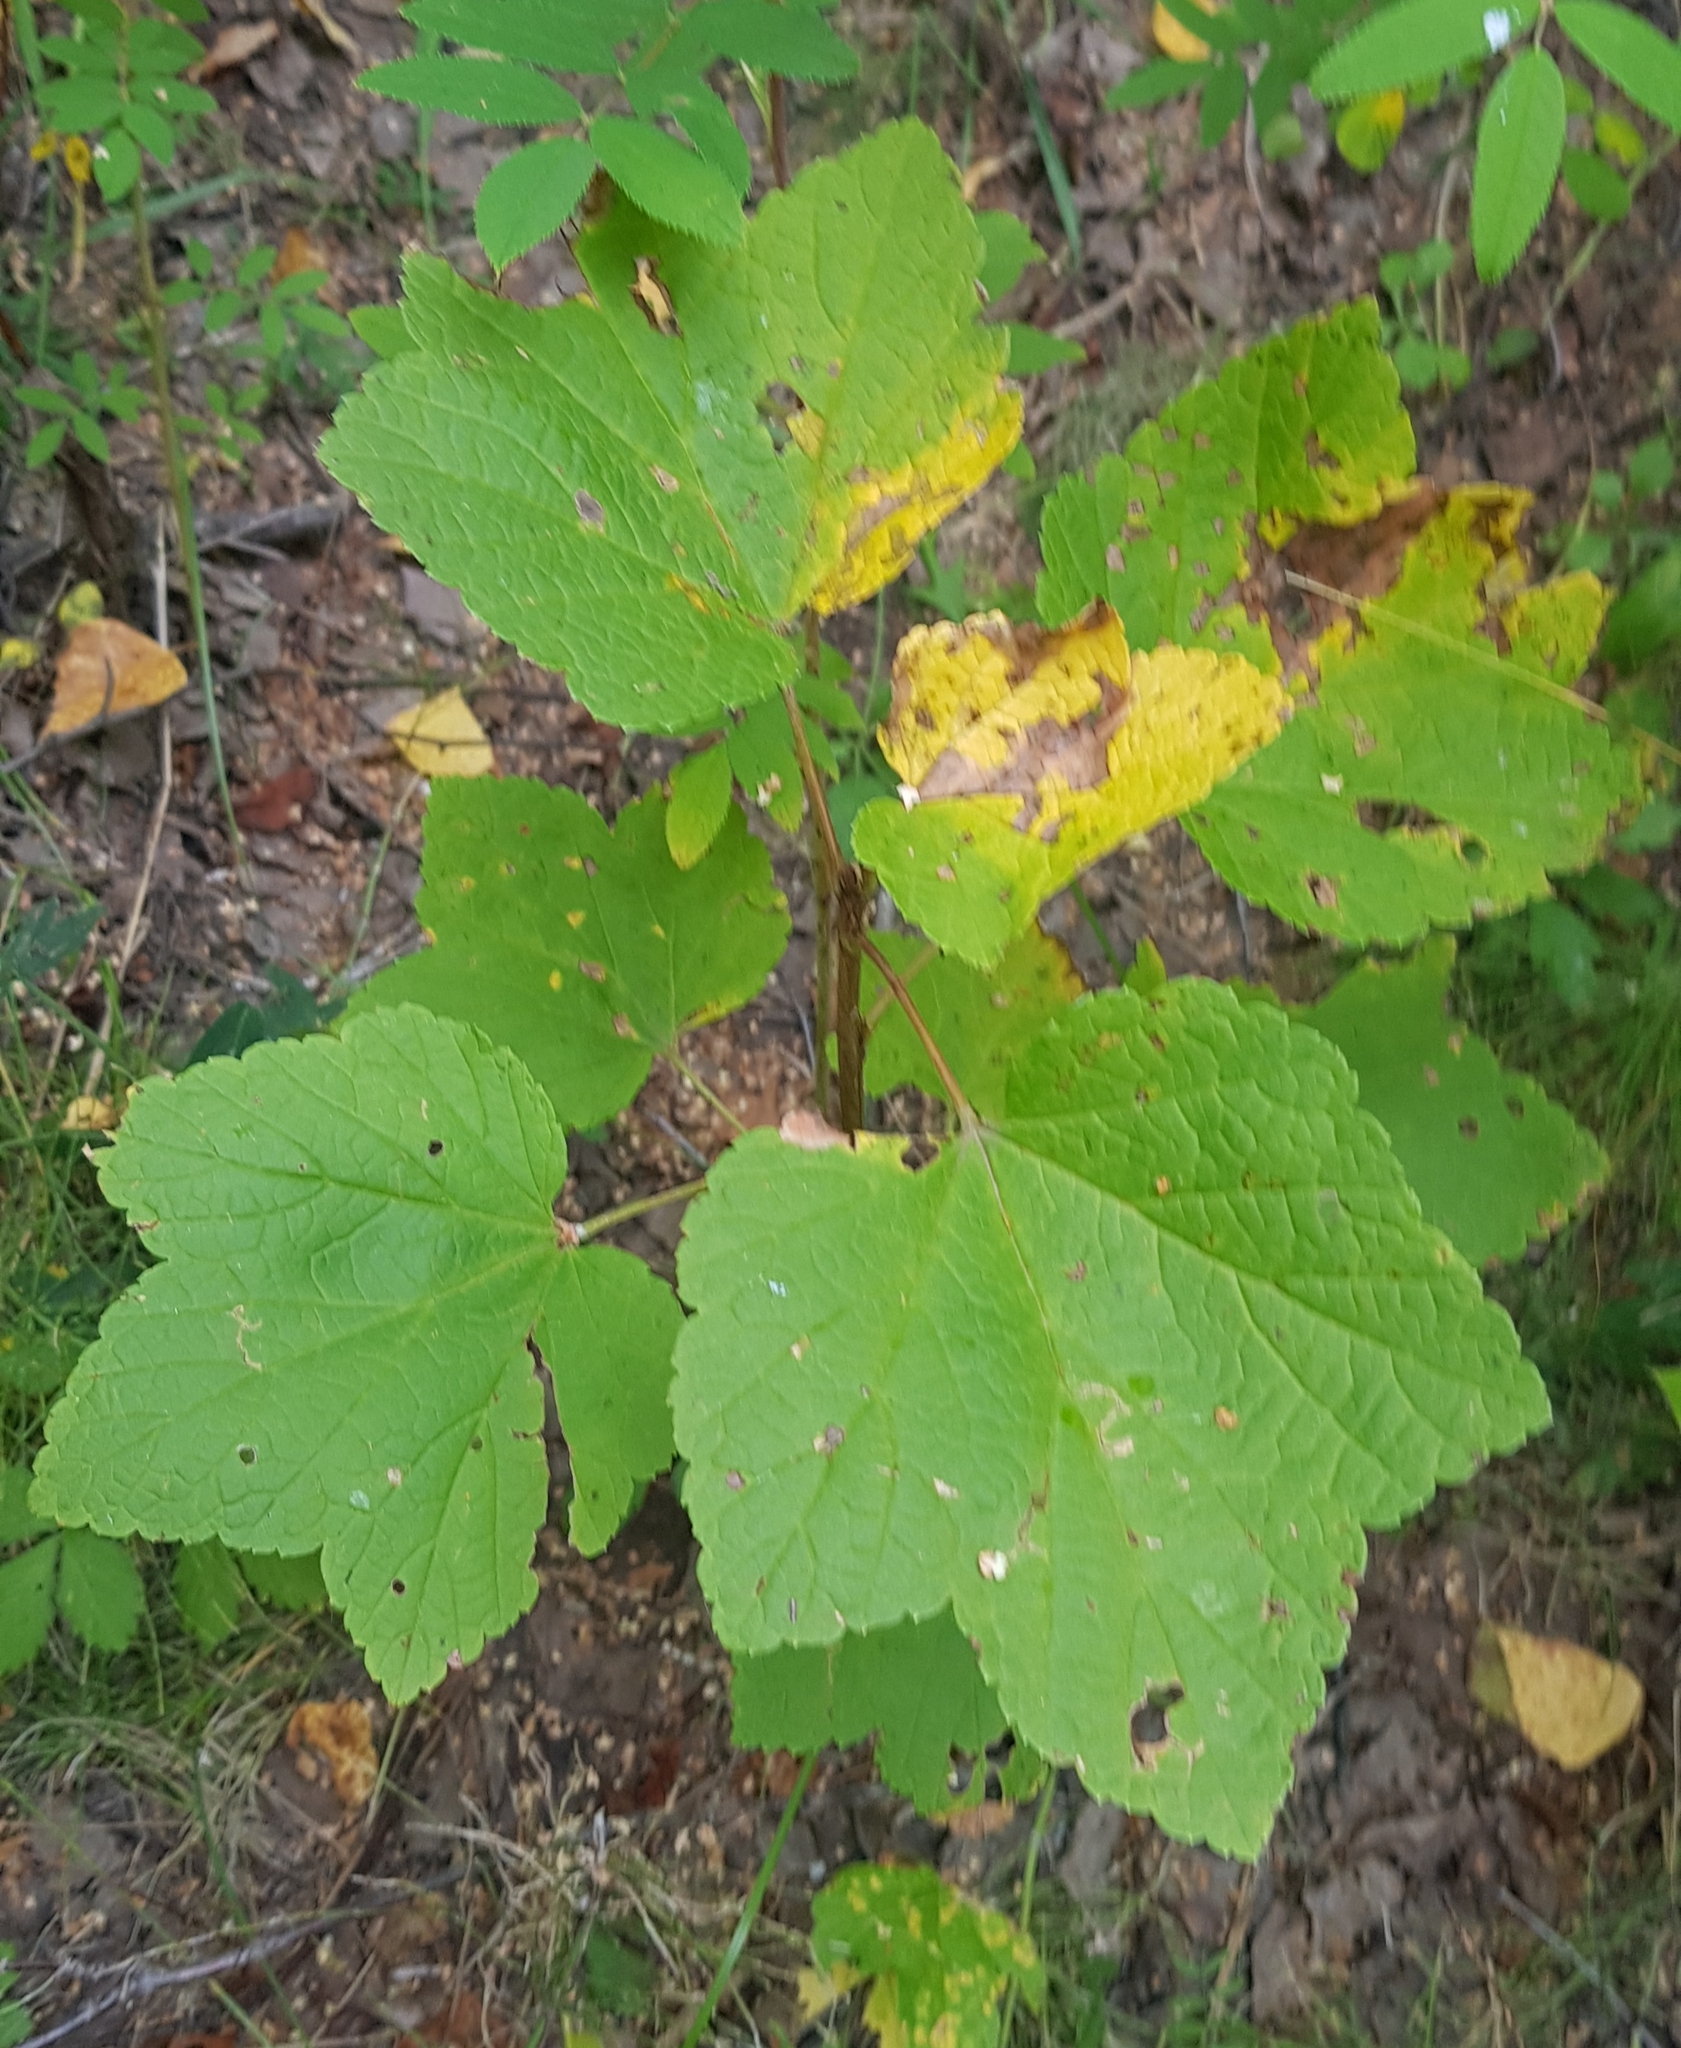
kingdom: Plantae
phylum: Tracheophyta
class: Magnoliopsida
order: Saxifragales
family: Grossulariaceae
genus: Ribes
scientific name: Ribes nigrum
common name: Black currant
